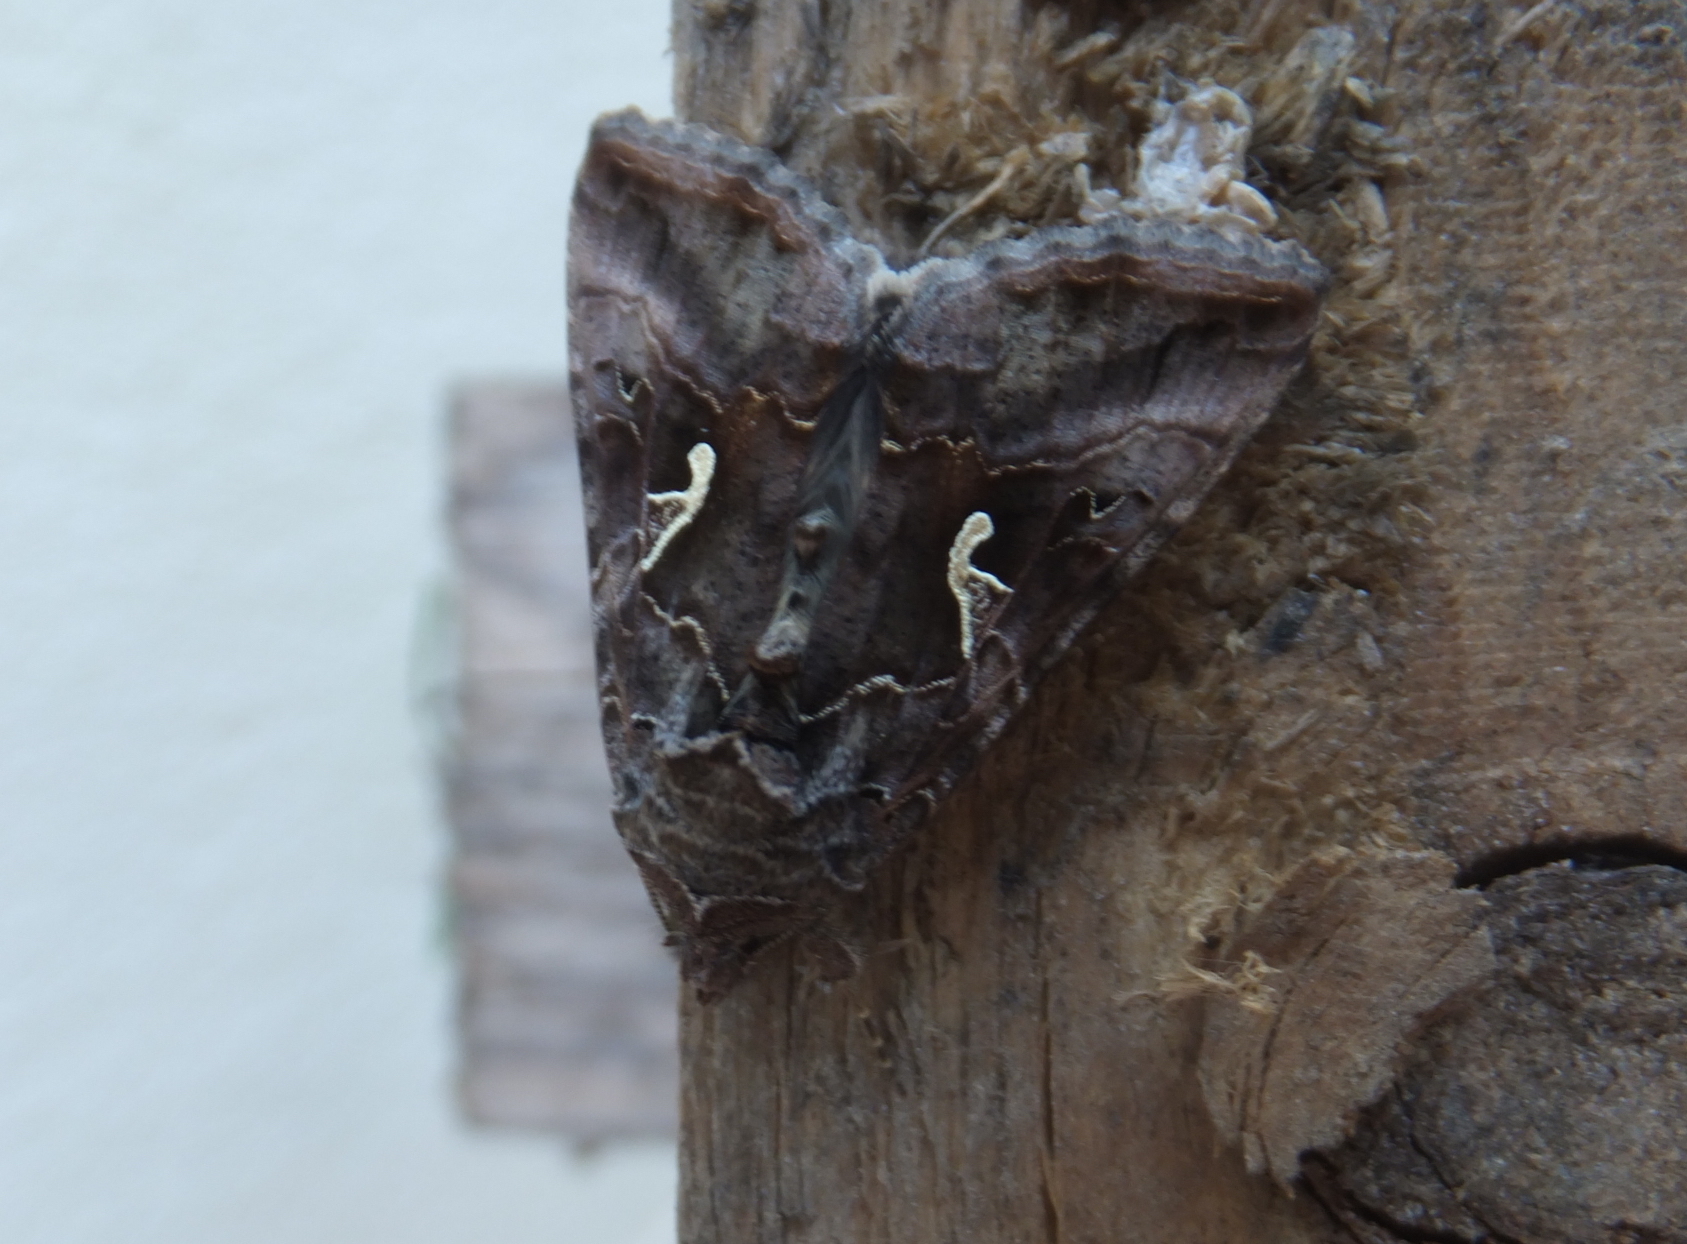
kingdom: Animalia
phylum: Arthropoda
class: Insecta
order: Lepidoptera
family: Noctuidae
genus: Autographa
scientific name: Autographa gamma
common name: Silver y
